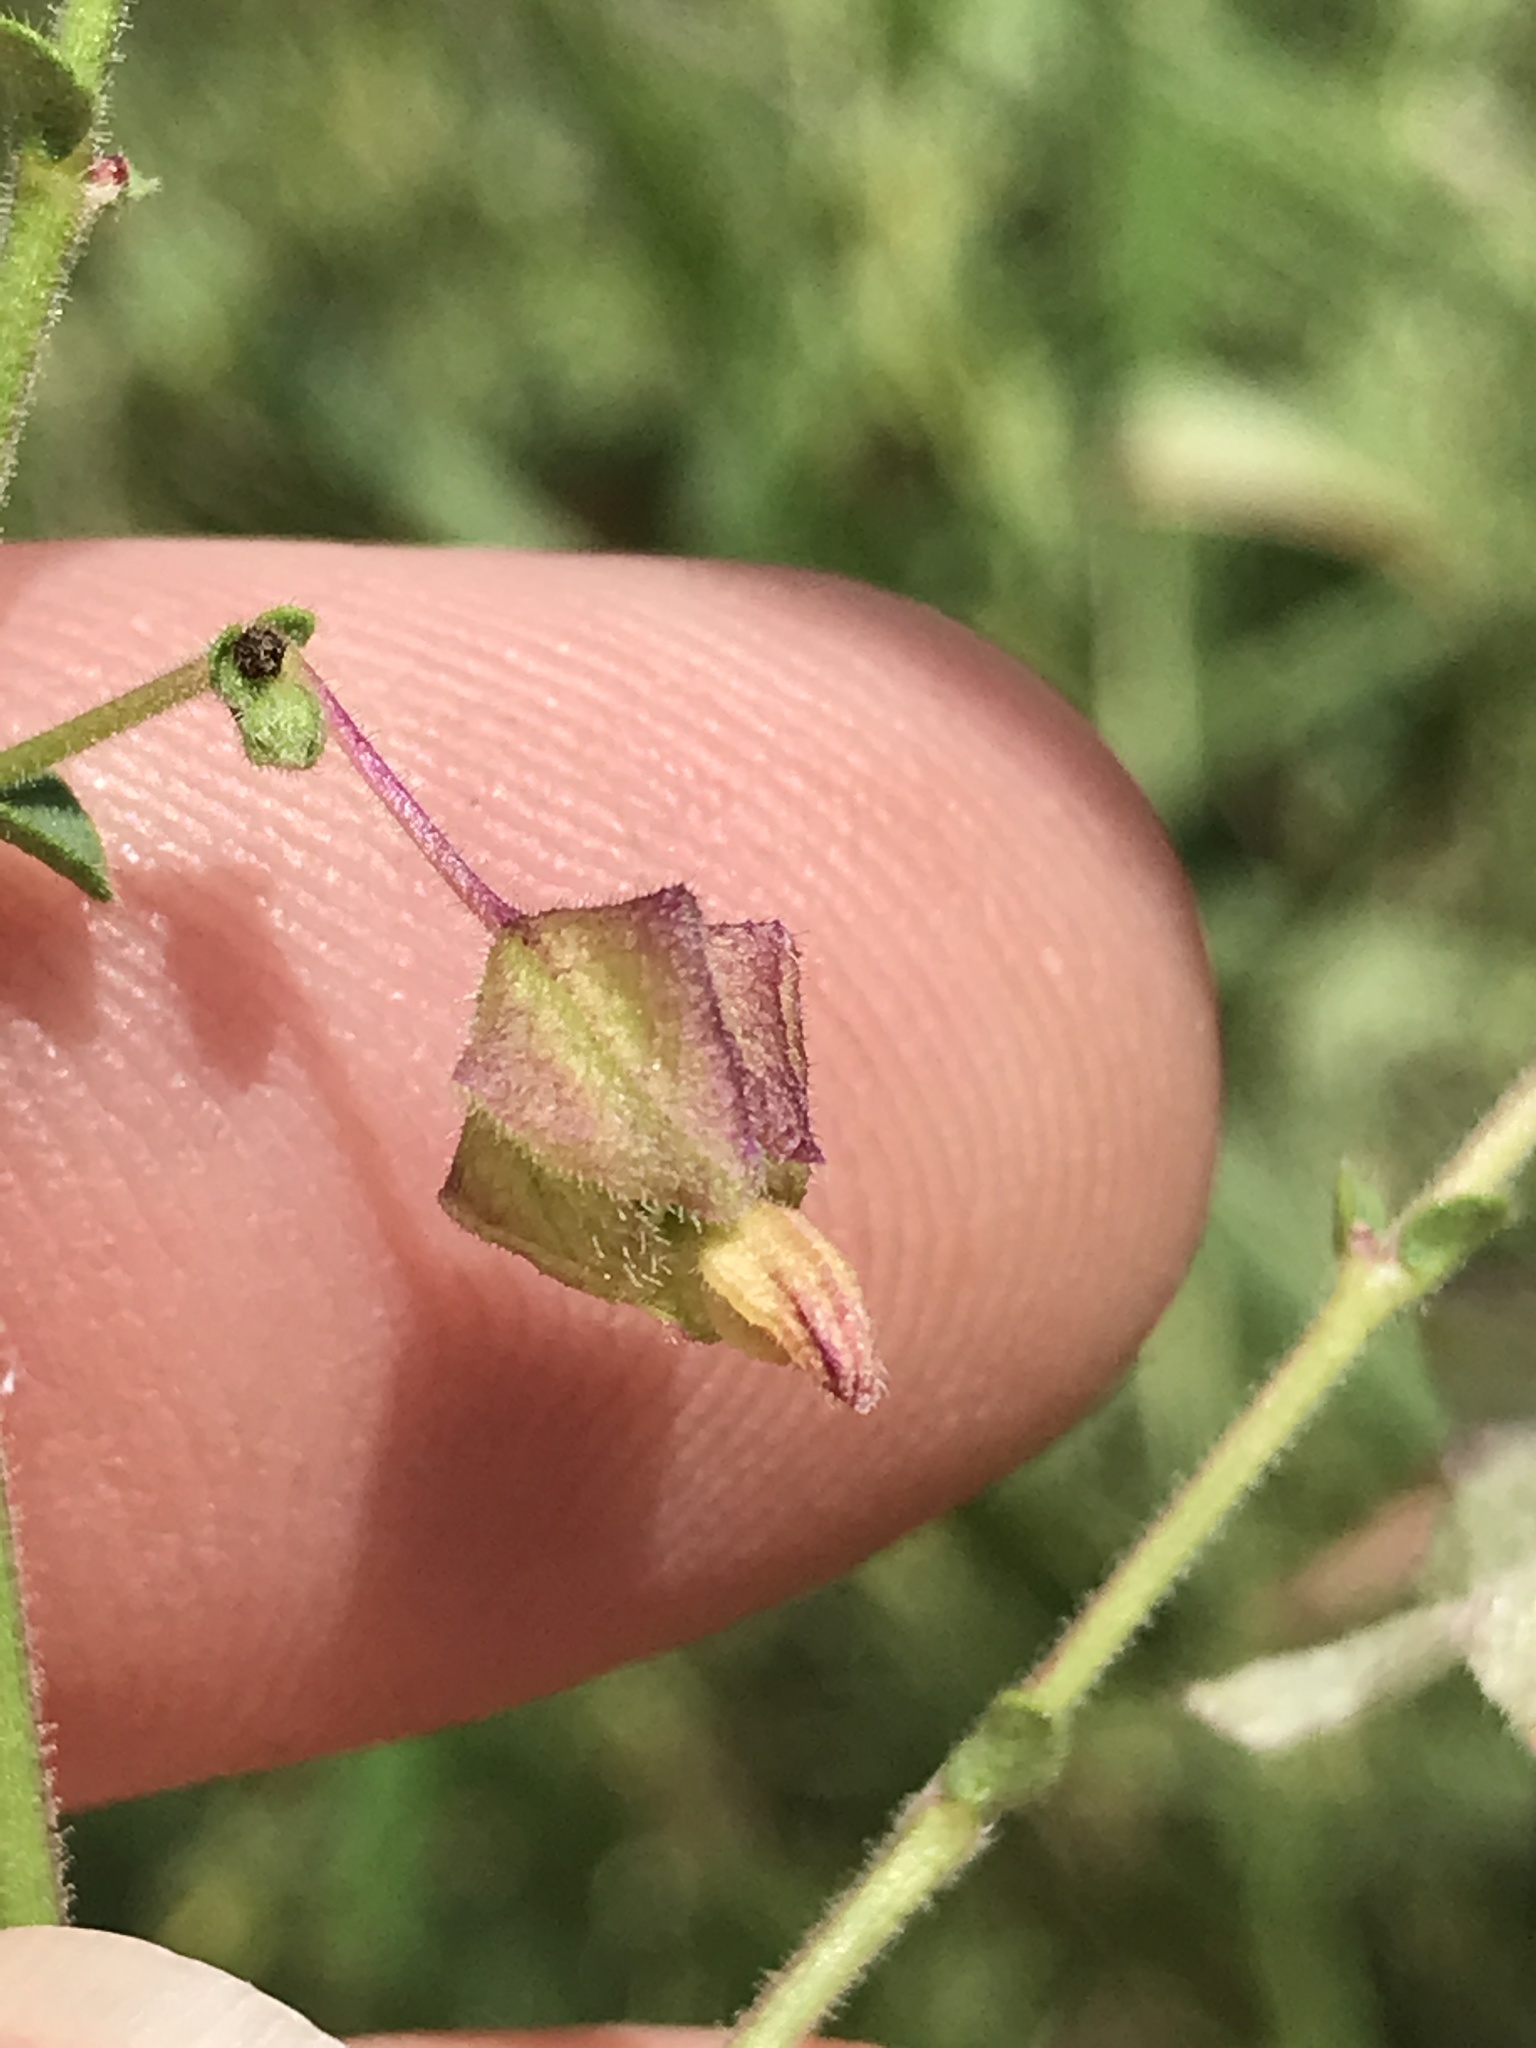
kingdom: Plantae
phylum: Tracheophyta
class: Magnoliopsida
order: Caryophyllales
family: Nyctaginaceae
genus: Mirabilis
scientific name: Mirabilis albida
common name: Hairy four-o'clock
